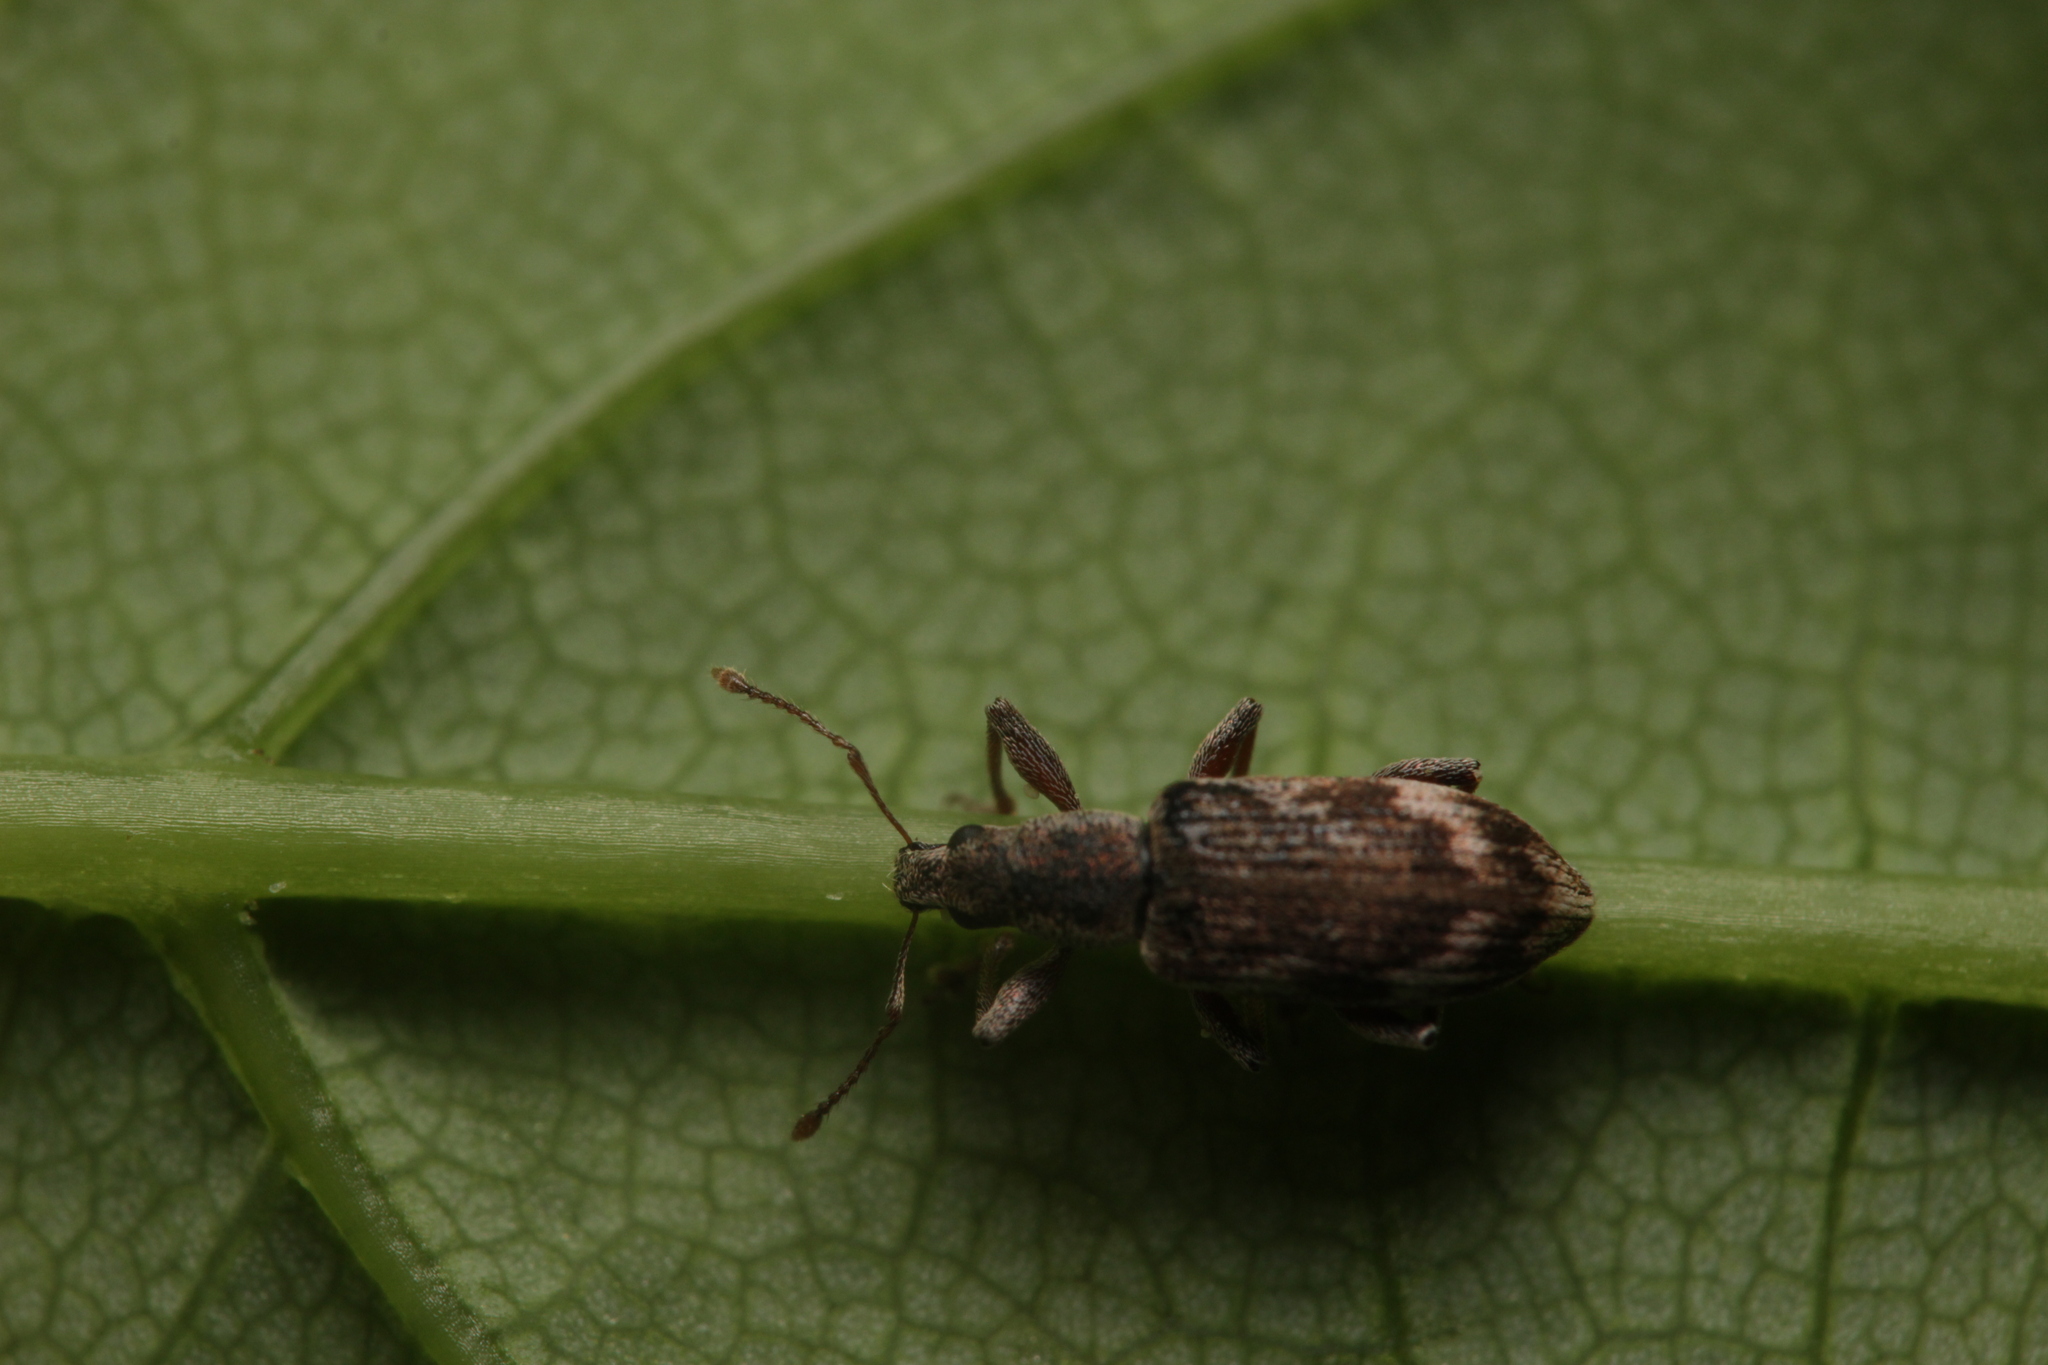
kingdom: Animalia
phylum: Arthropoda
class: Insecta
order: Coleoptera
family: Curculionidae
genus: Polydrusus
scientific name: Polydrusus tereticollis
